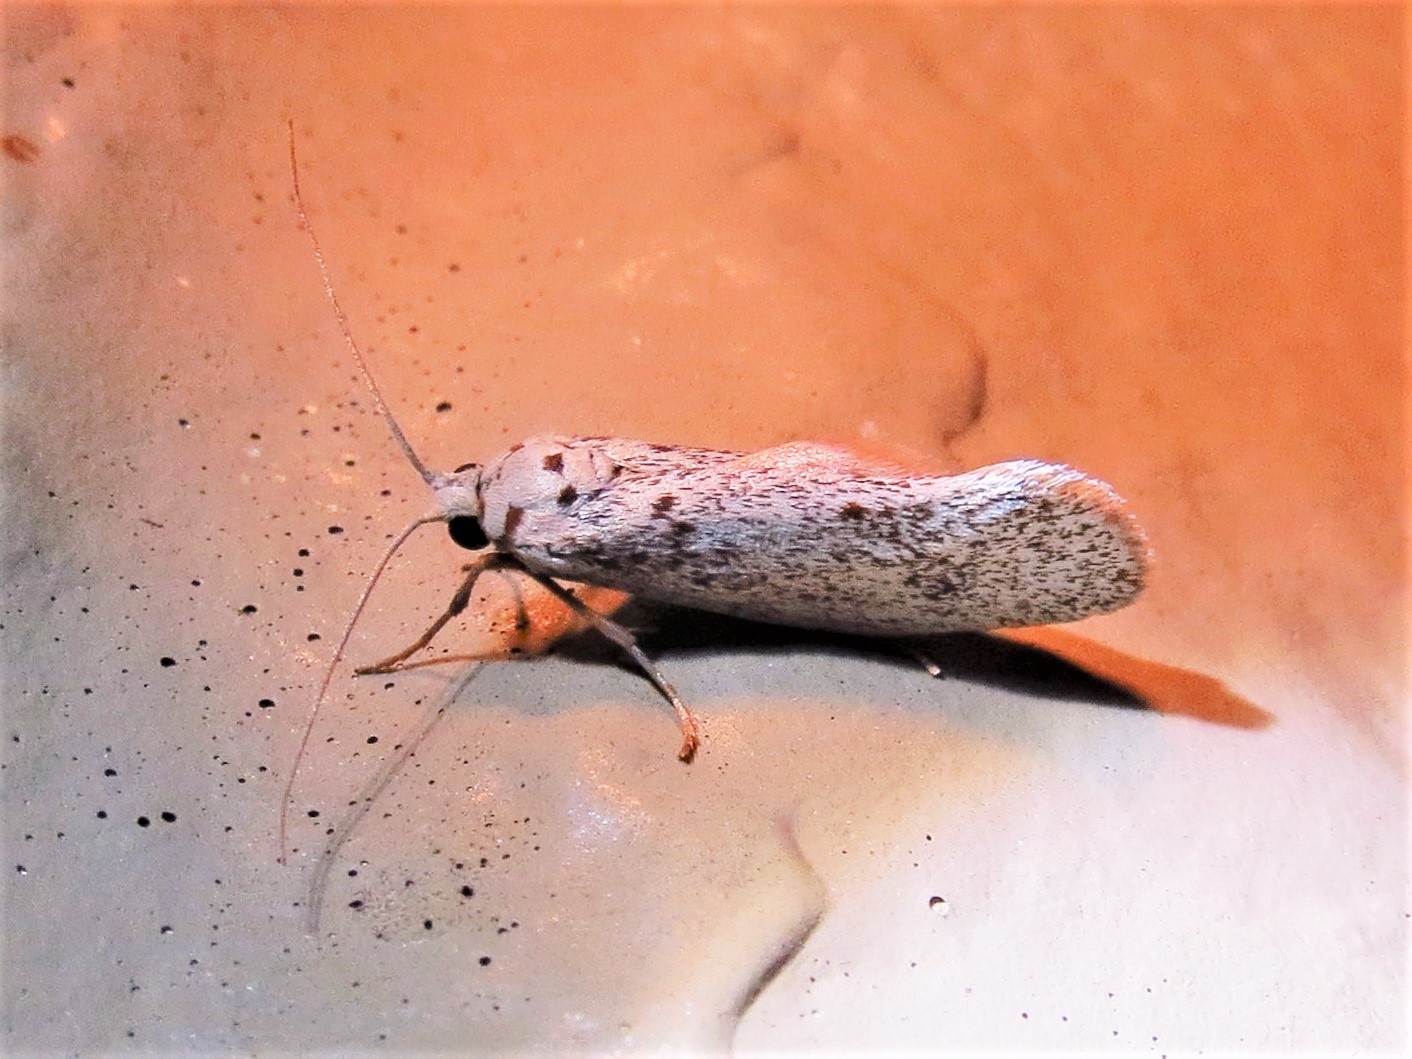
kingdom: Animalia
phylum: Arthropoda
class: Insecta
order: Lepidoptera
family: Lacturidae
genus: Lactura
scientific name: Lactura
